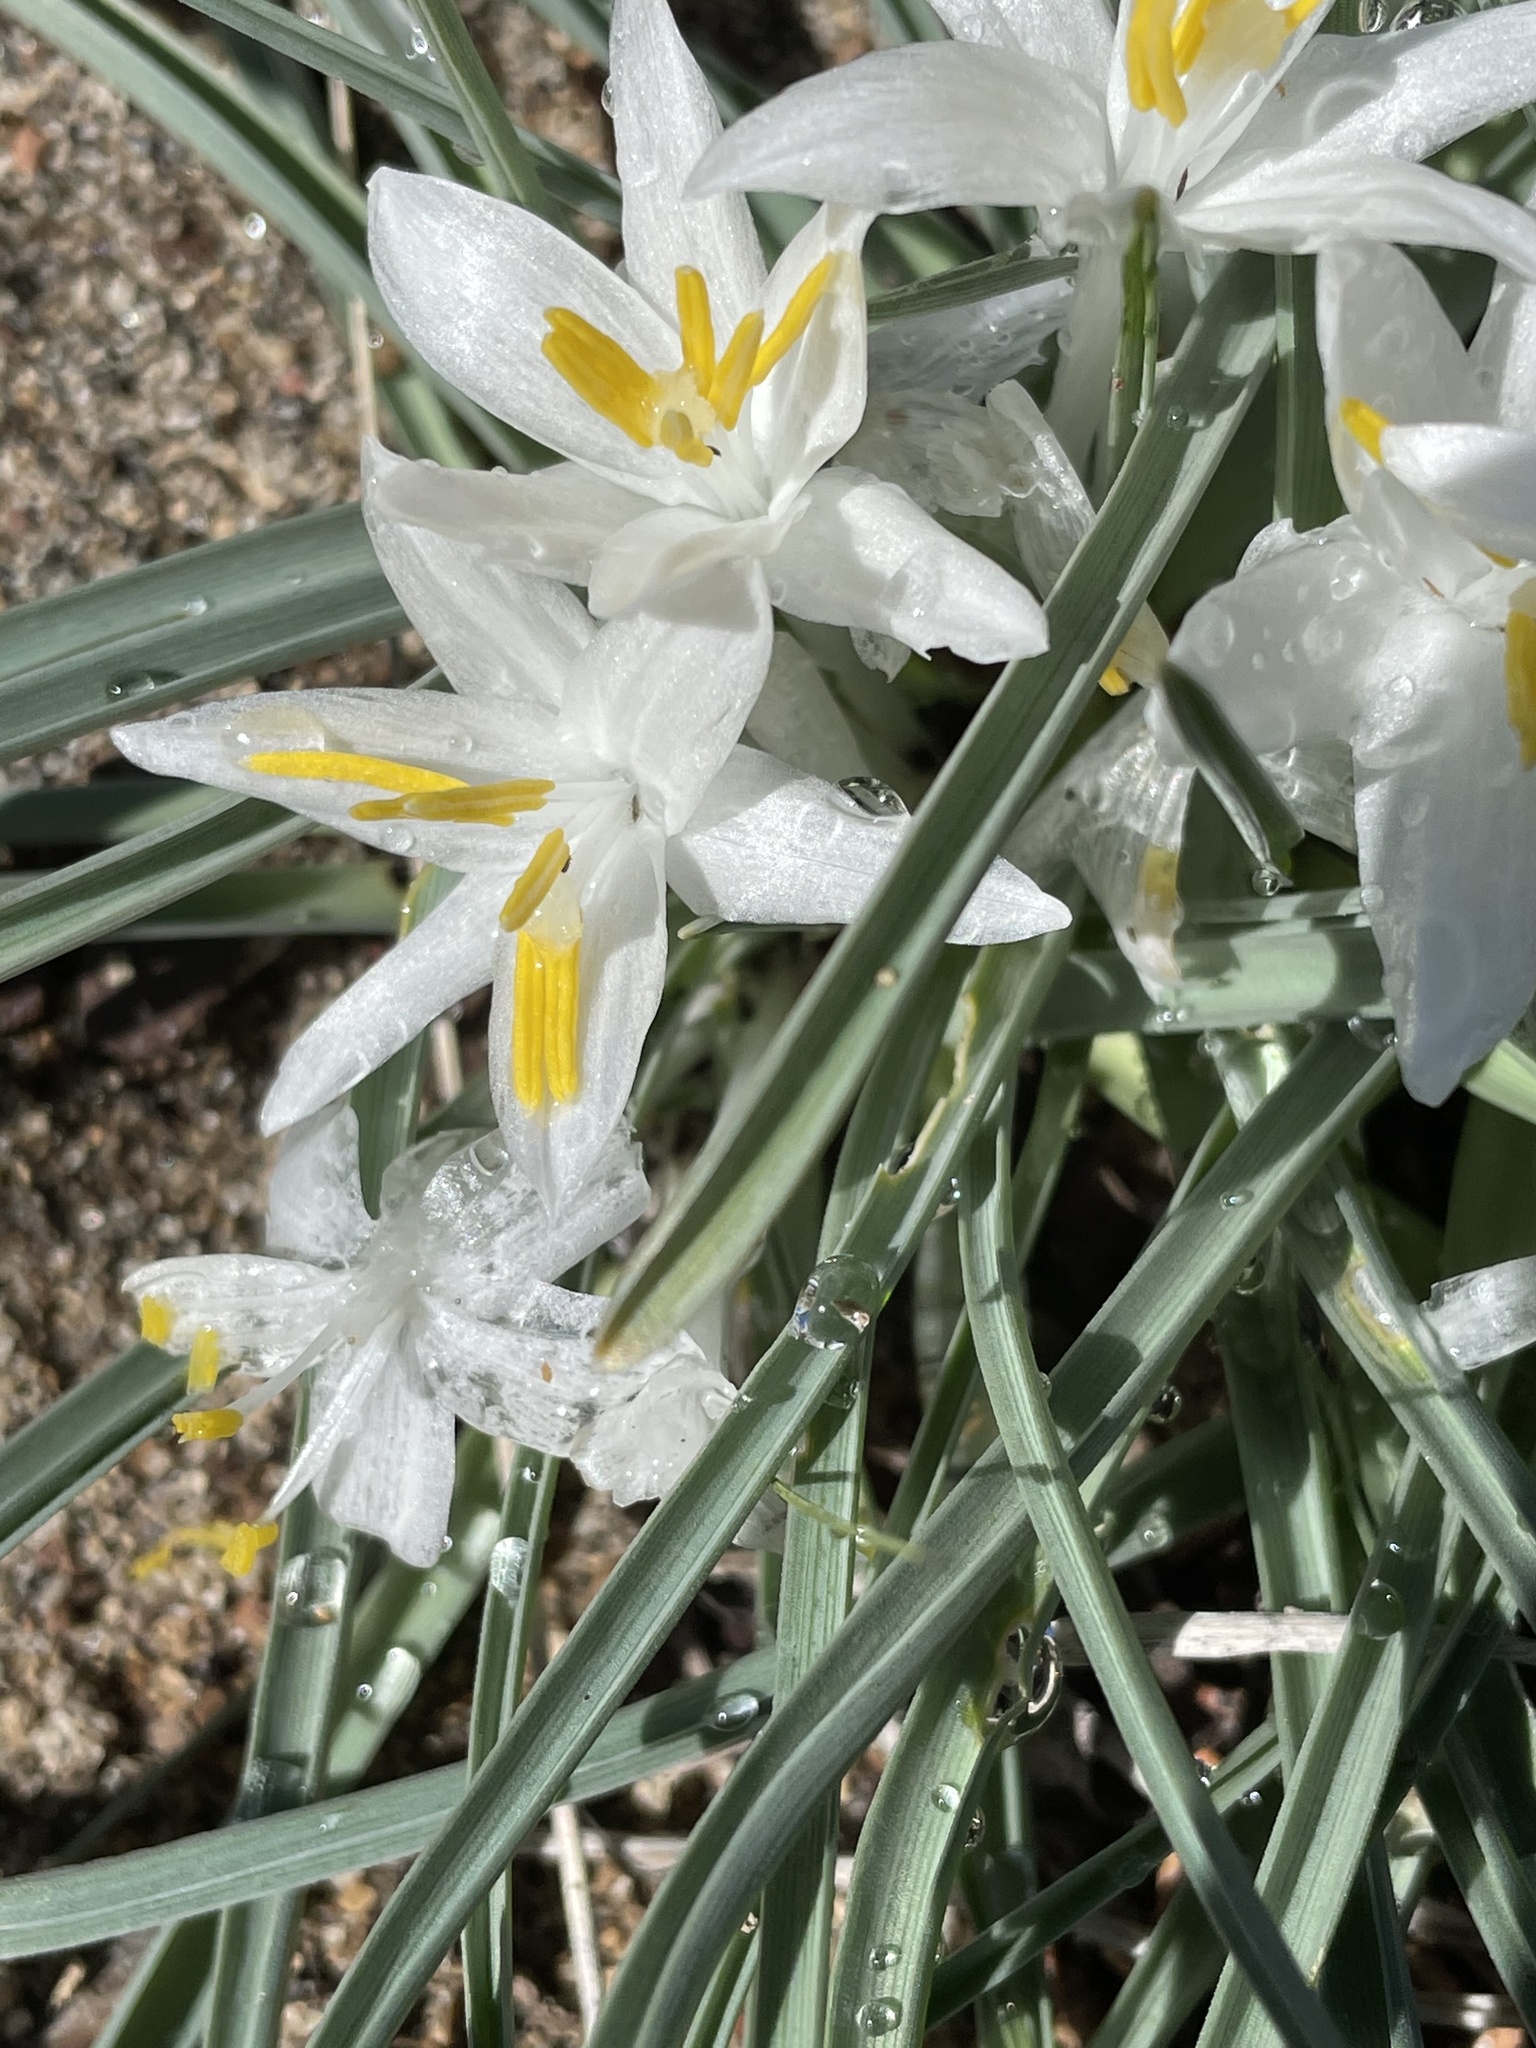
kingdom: Plantae
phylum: Tracheophyta
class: Liliopsida
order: Asparagales
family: Asparagaceae
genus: Leucocrinum
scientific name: Leucocrinum montanum
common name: Mountain-lily
